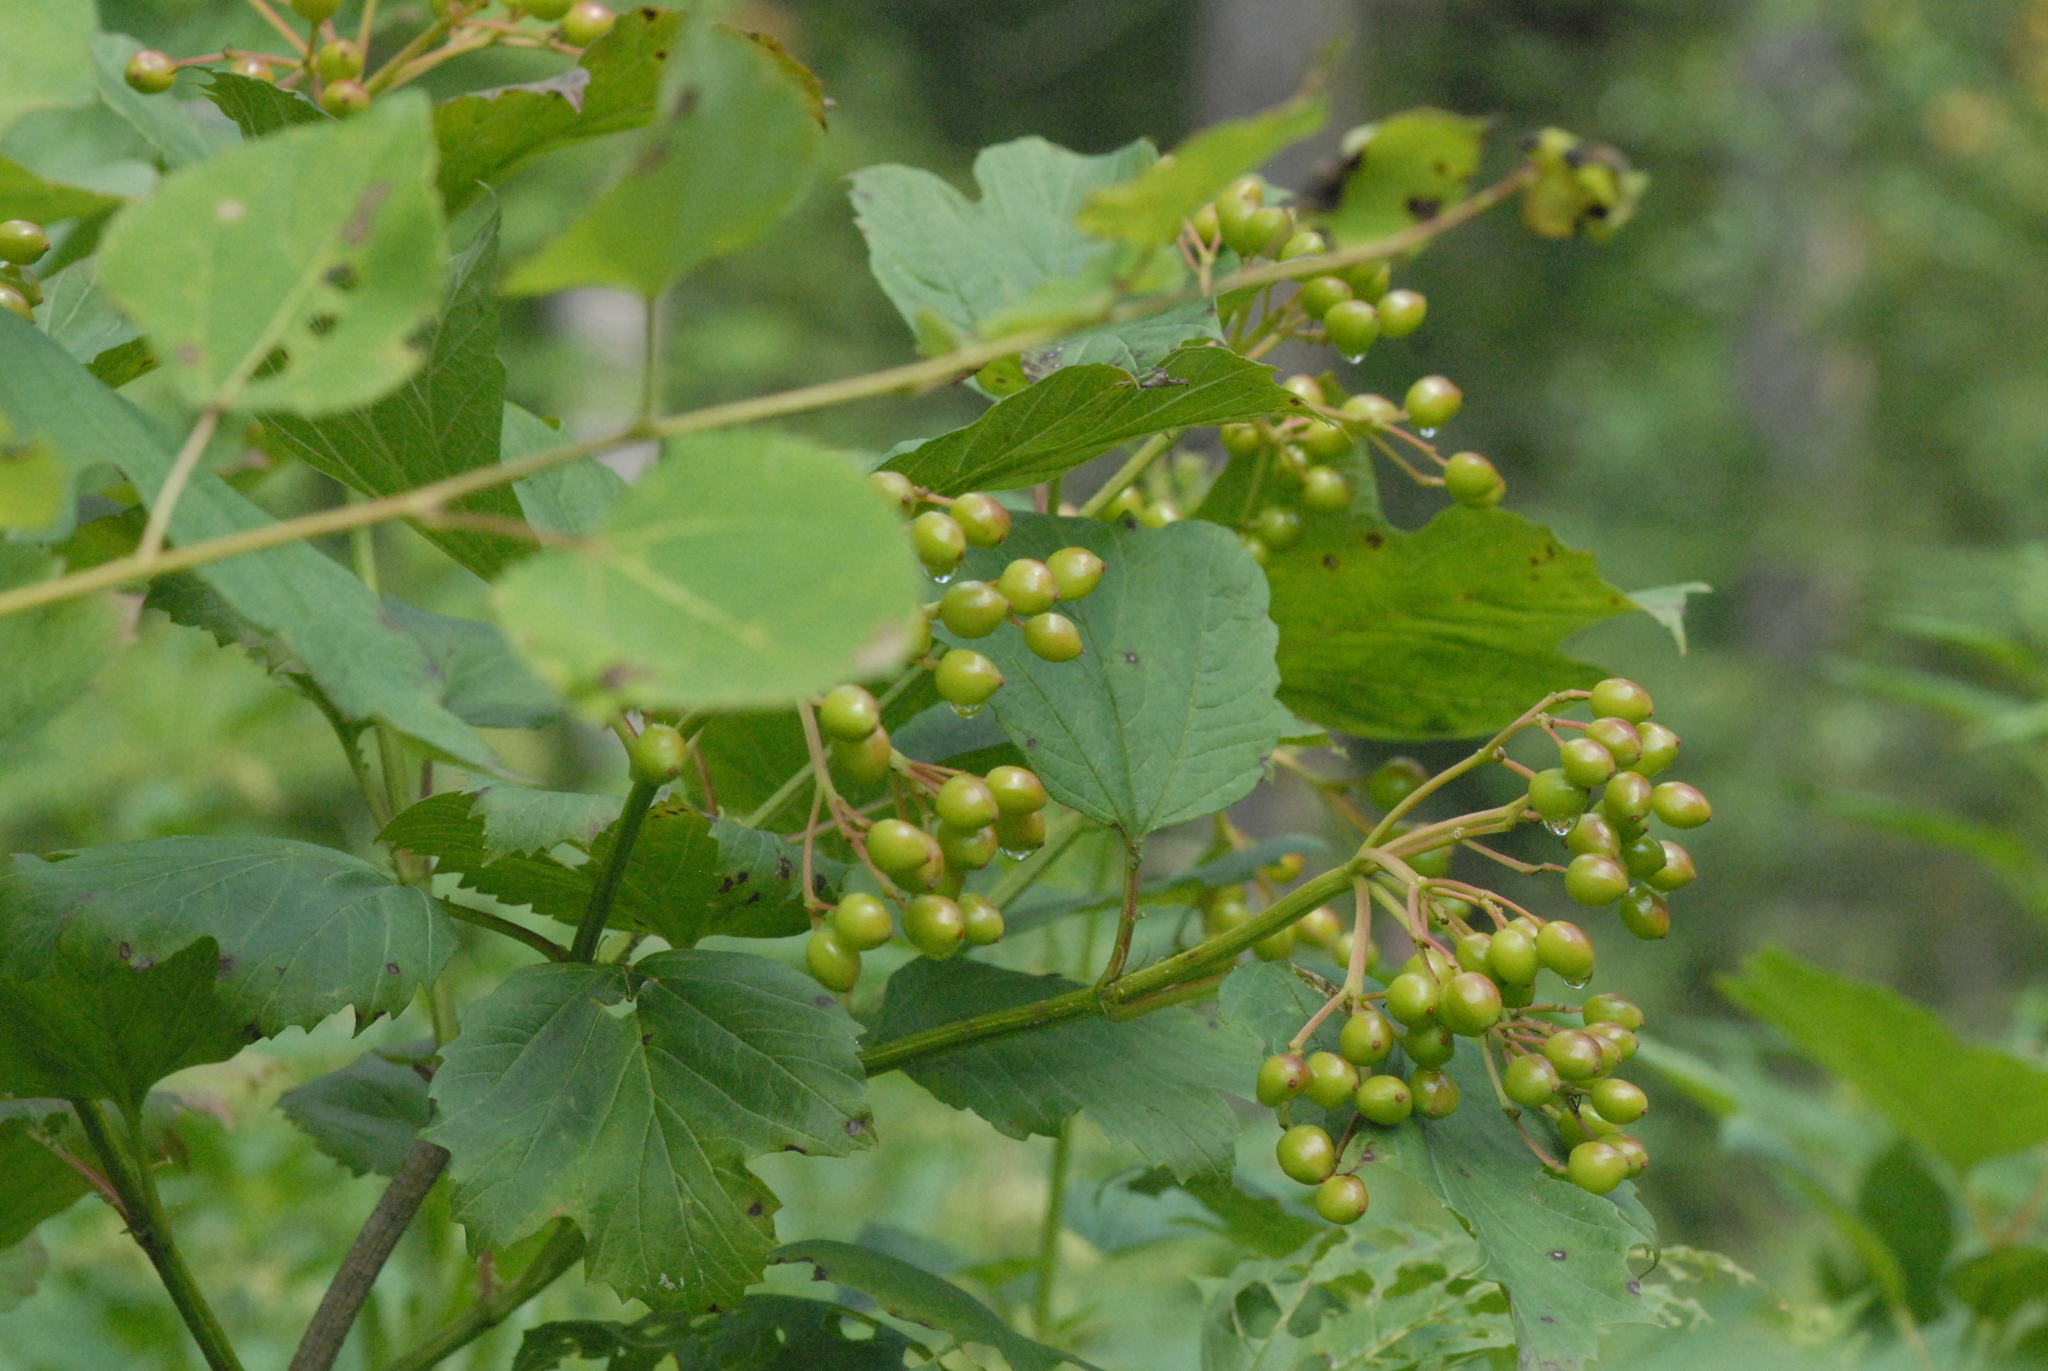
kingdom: Plantae
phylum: Tracheophyta
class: Magnoliopsida
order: Dipsacales
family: Viburnaceae
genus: Viburnum
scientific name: Viburnum opulus
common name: Guelder-rose
